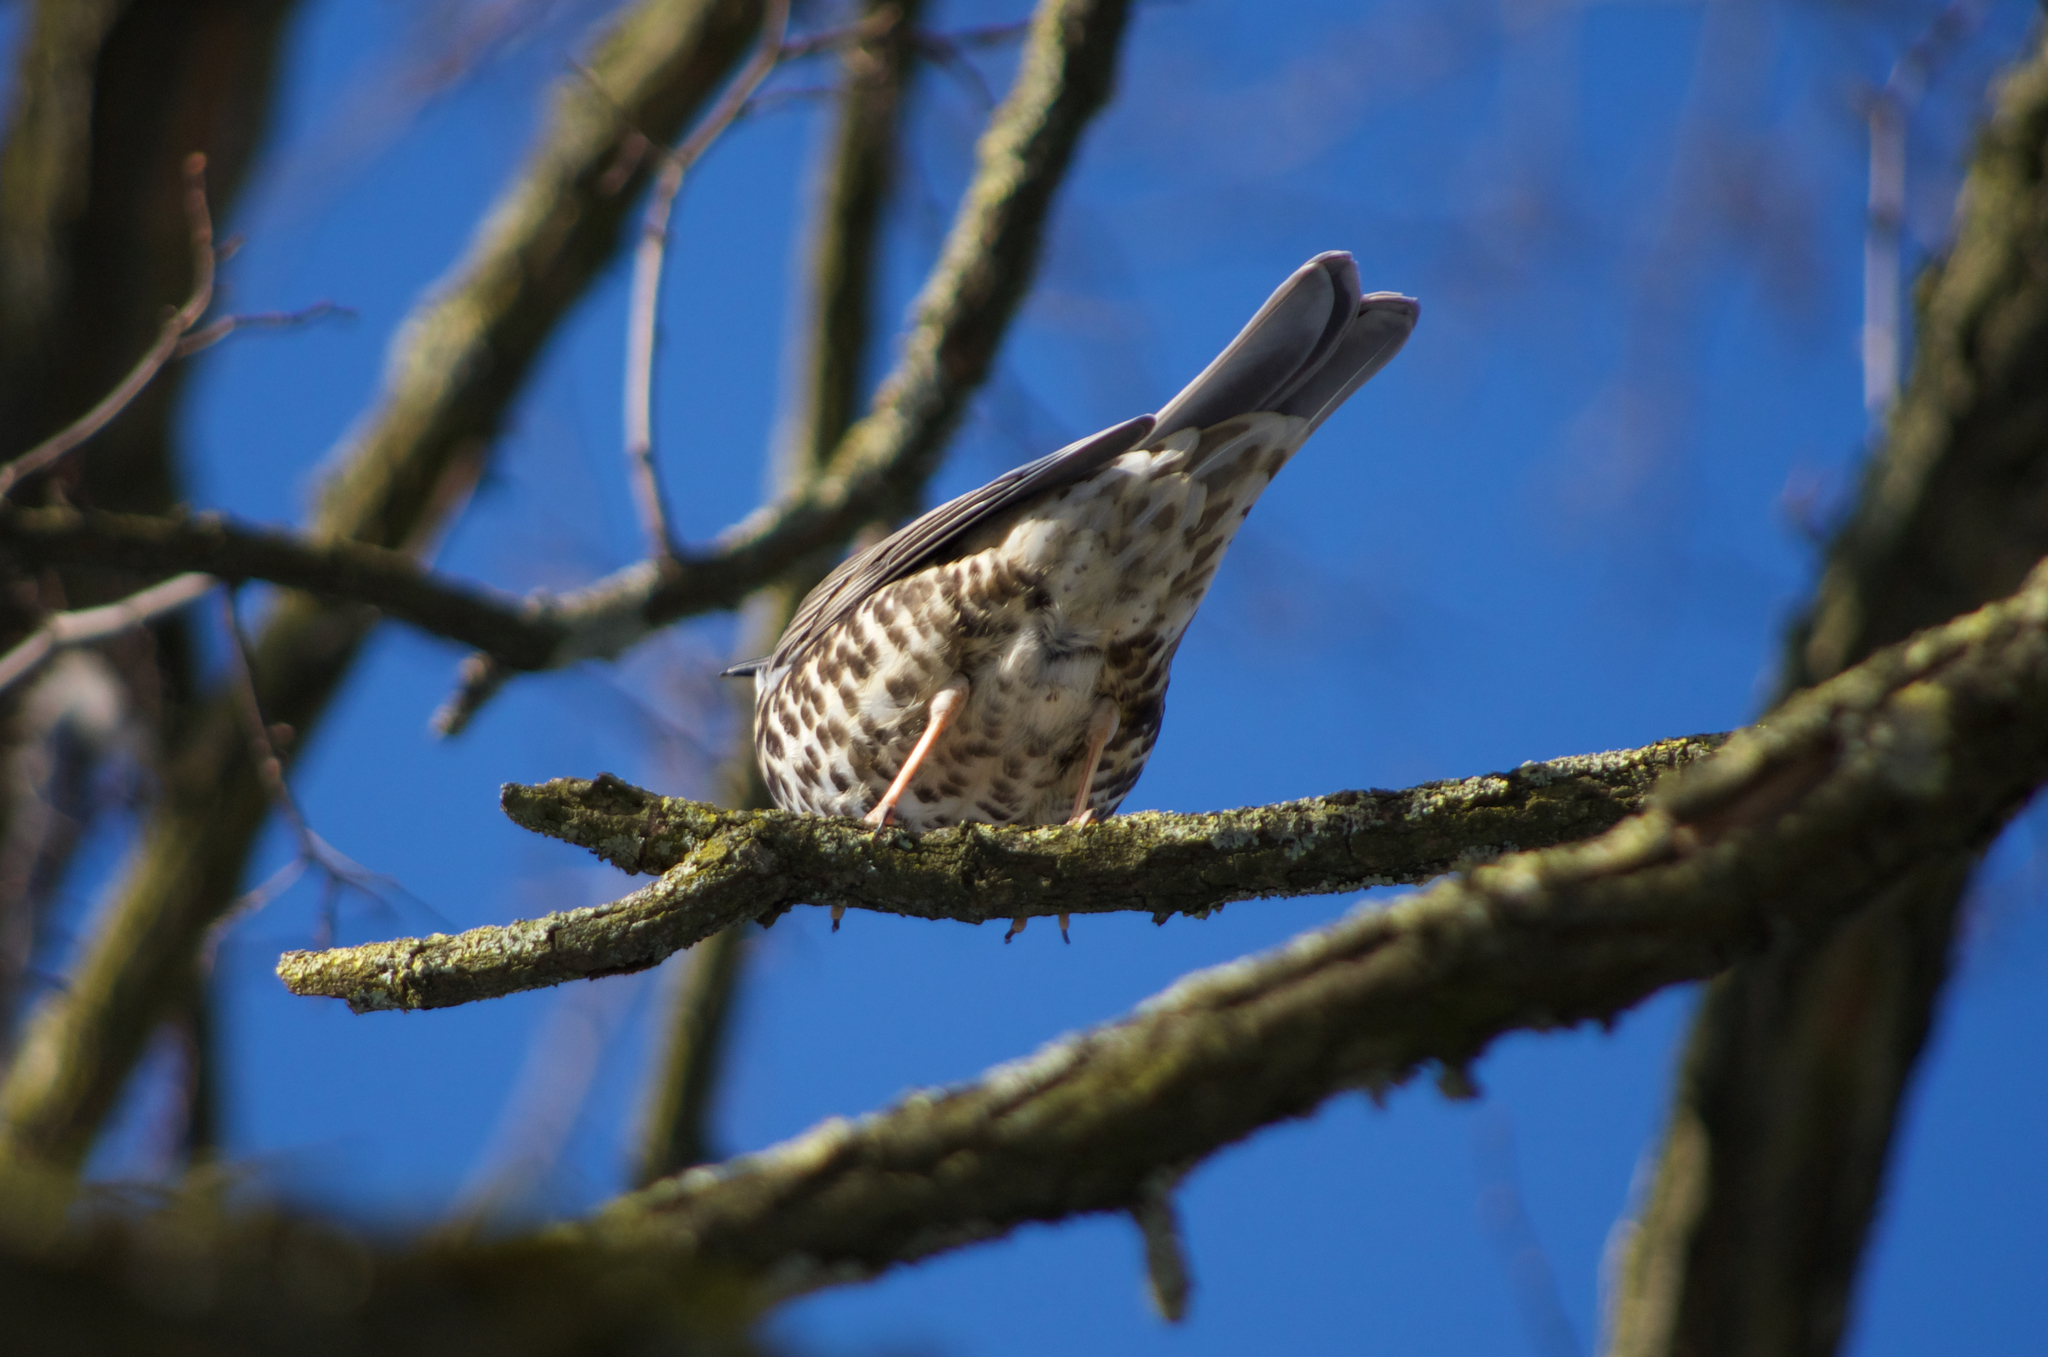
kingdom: Animalia
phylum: Chordata
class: Aves
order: Passeriformes
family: Turdidae
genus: Turdus
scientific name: Turdus viscivorus
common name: Mistle thrush
